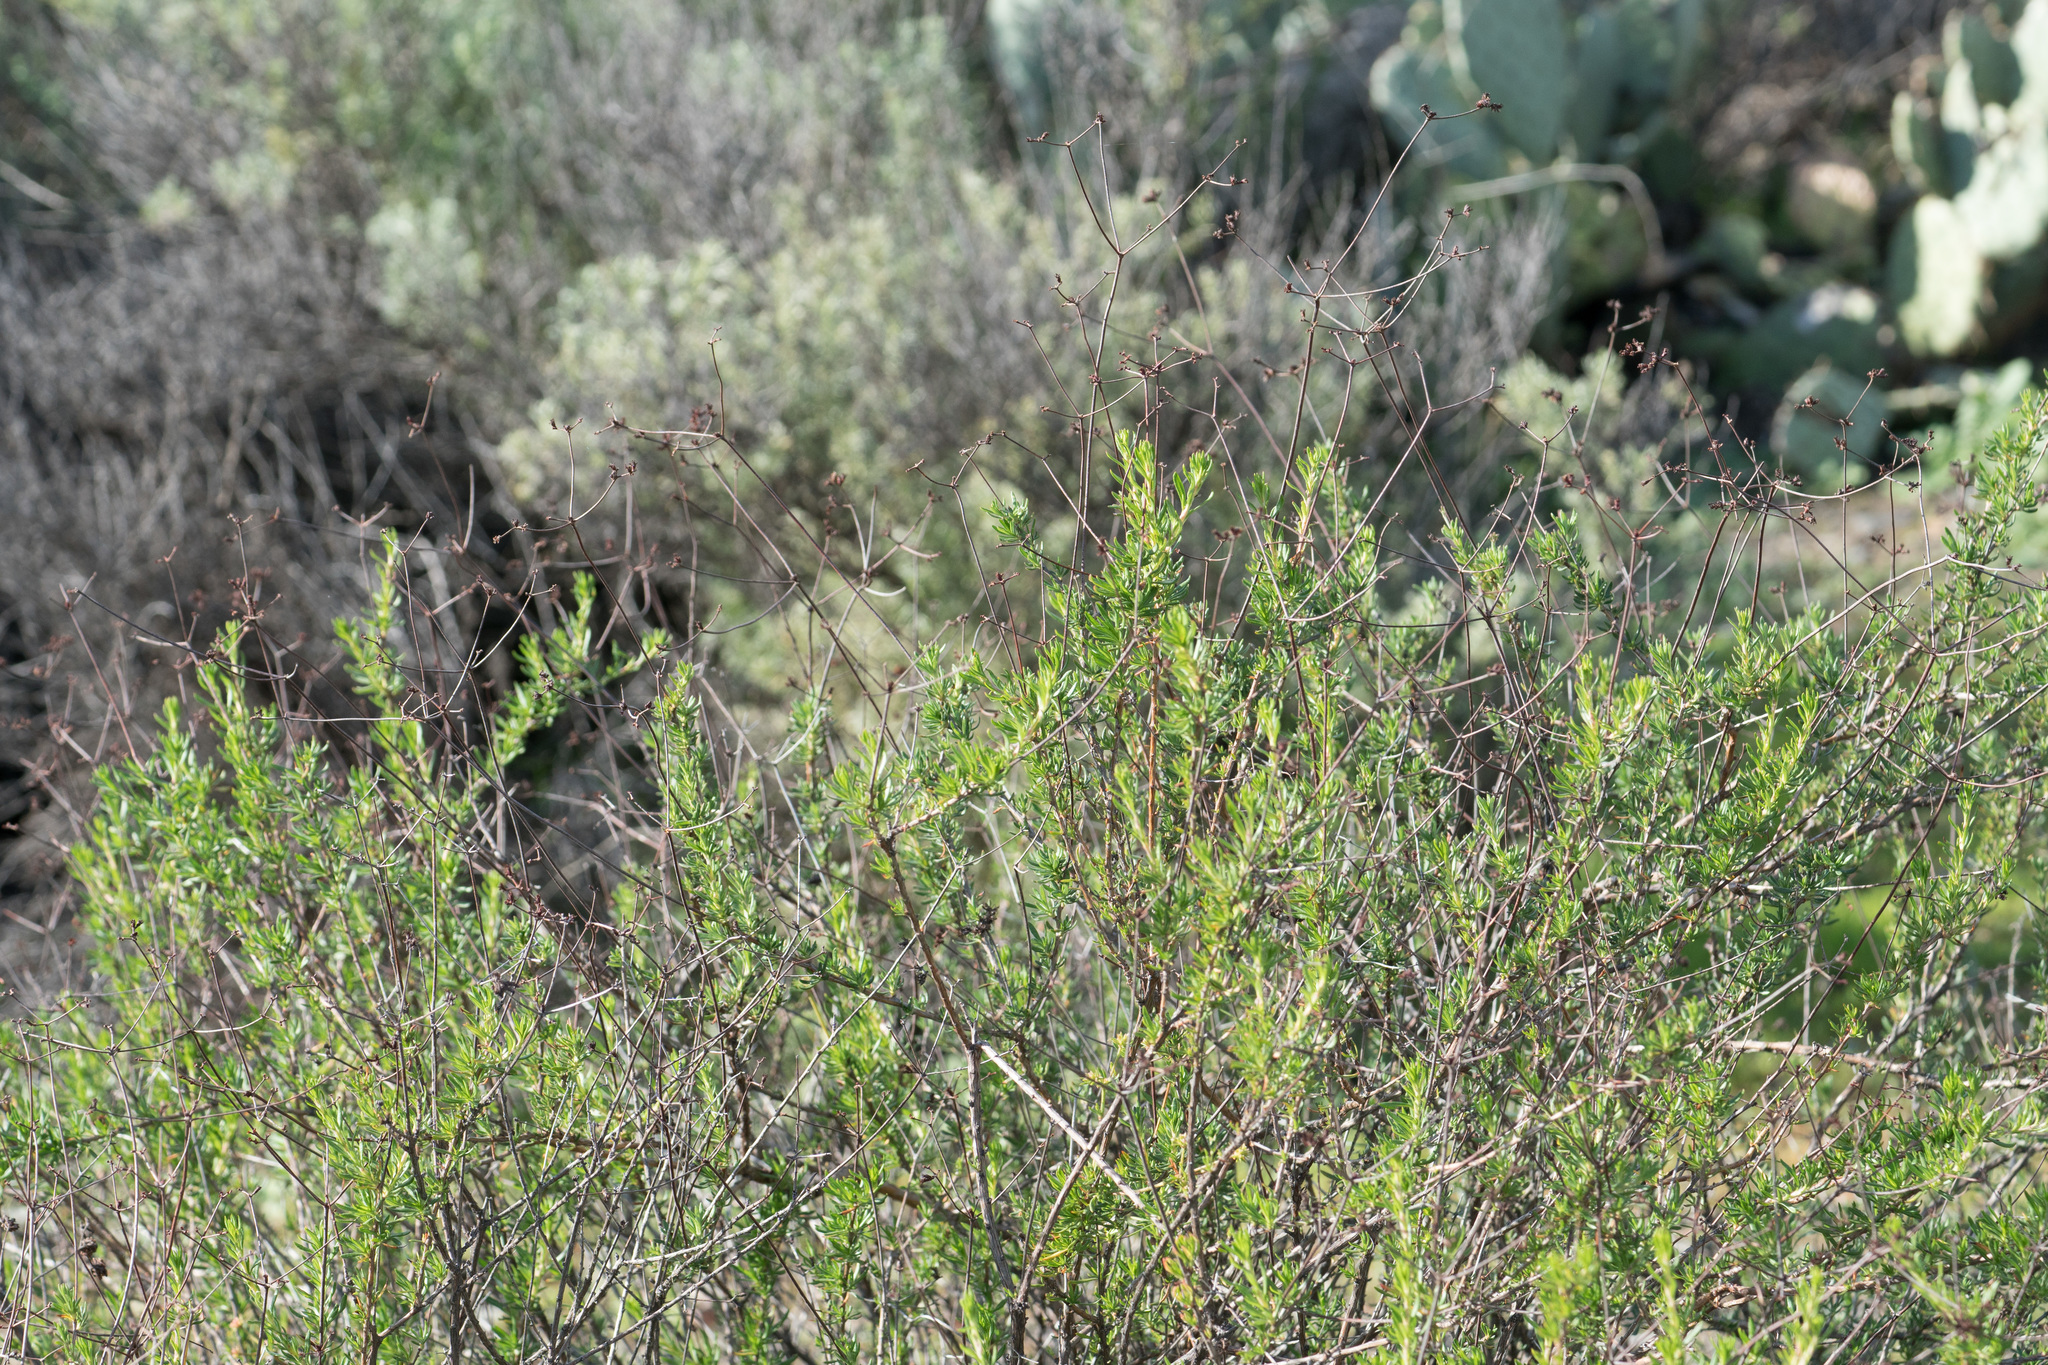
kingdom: Plantae
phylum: Tracheophyta
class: Magnoliopsida
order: Caryophyllales
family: Polygonaceae
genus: Eriogonum
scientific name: Eriogonum fasciculatum
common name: California wild buckwheat
